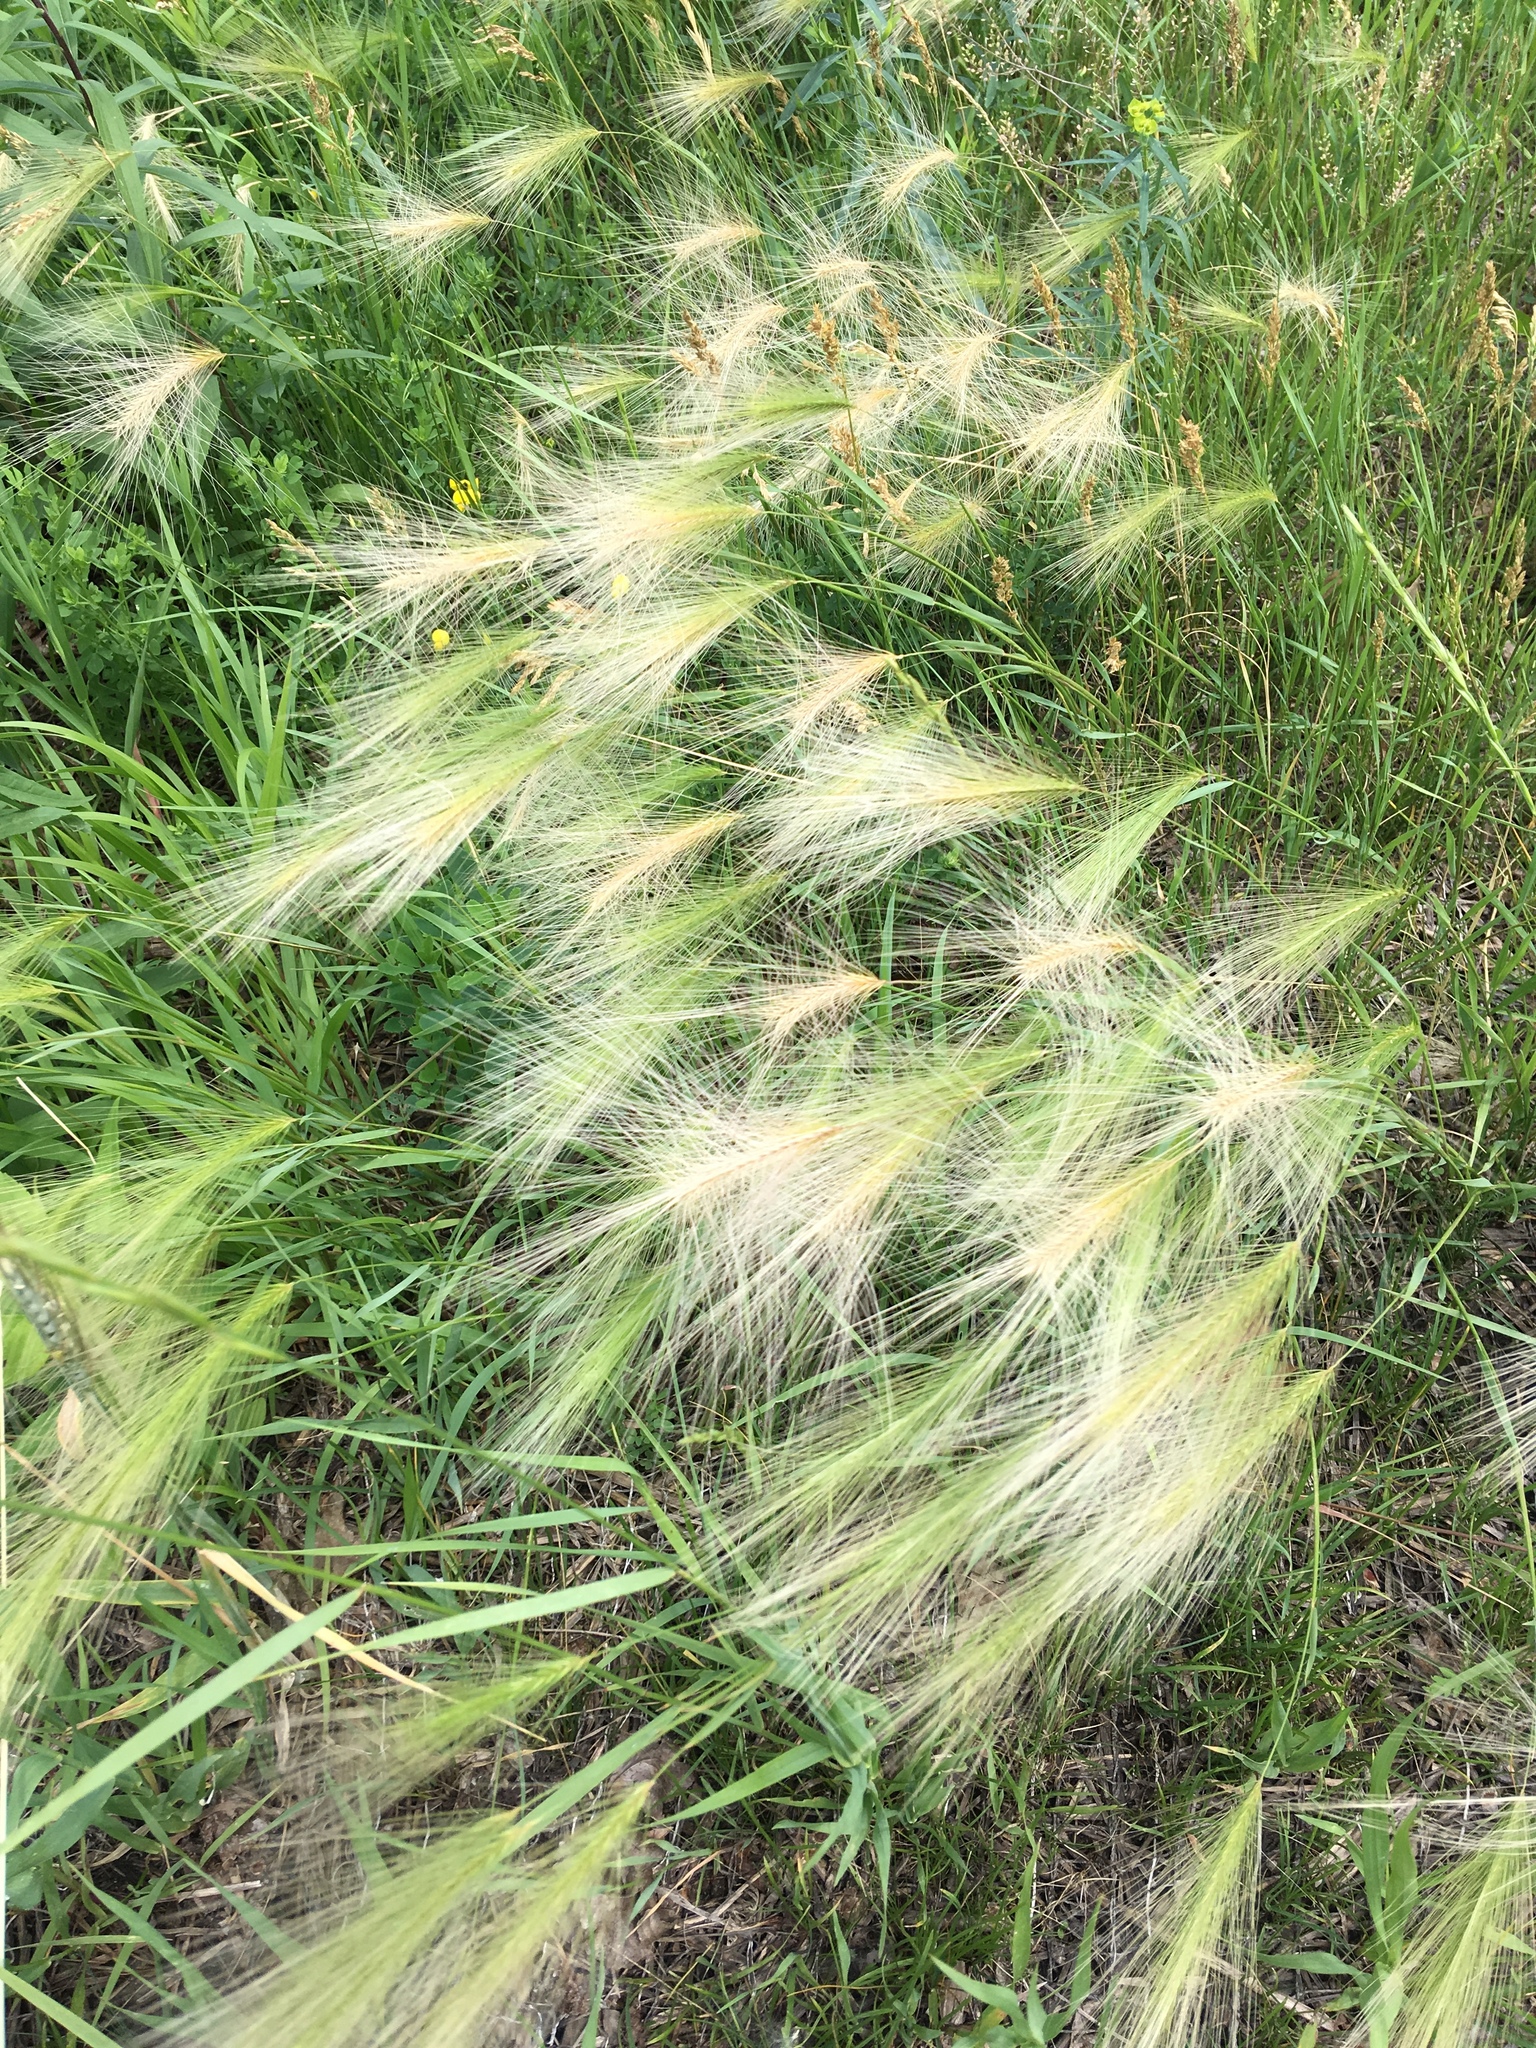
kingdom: Plantae
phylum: Tracheophyta
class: Liliopsida
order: Poales
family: Poaceae
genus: Hordeum
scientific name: Hordeum jubatum
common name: Foxtail barley
